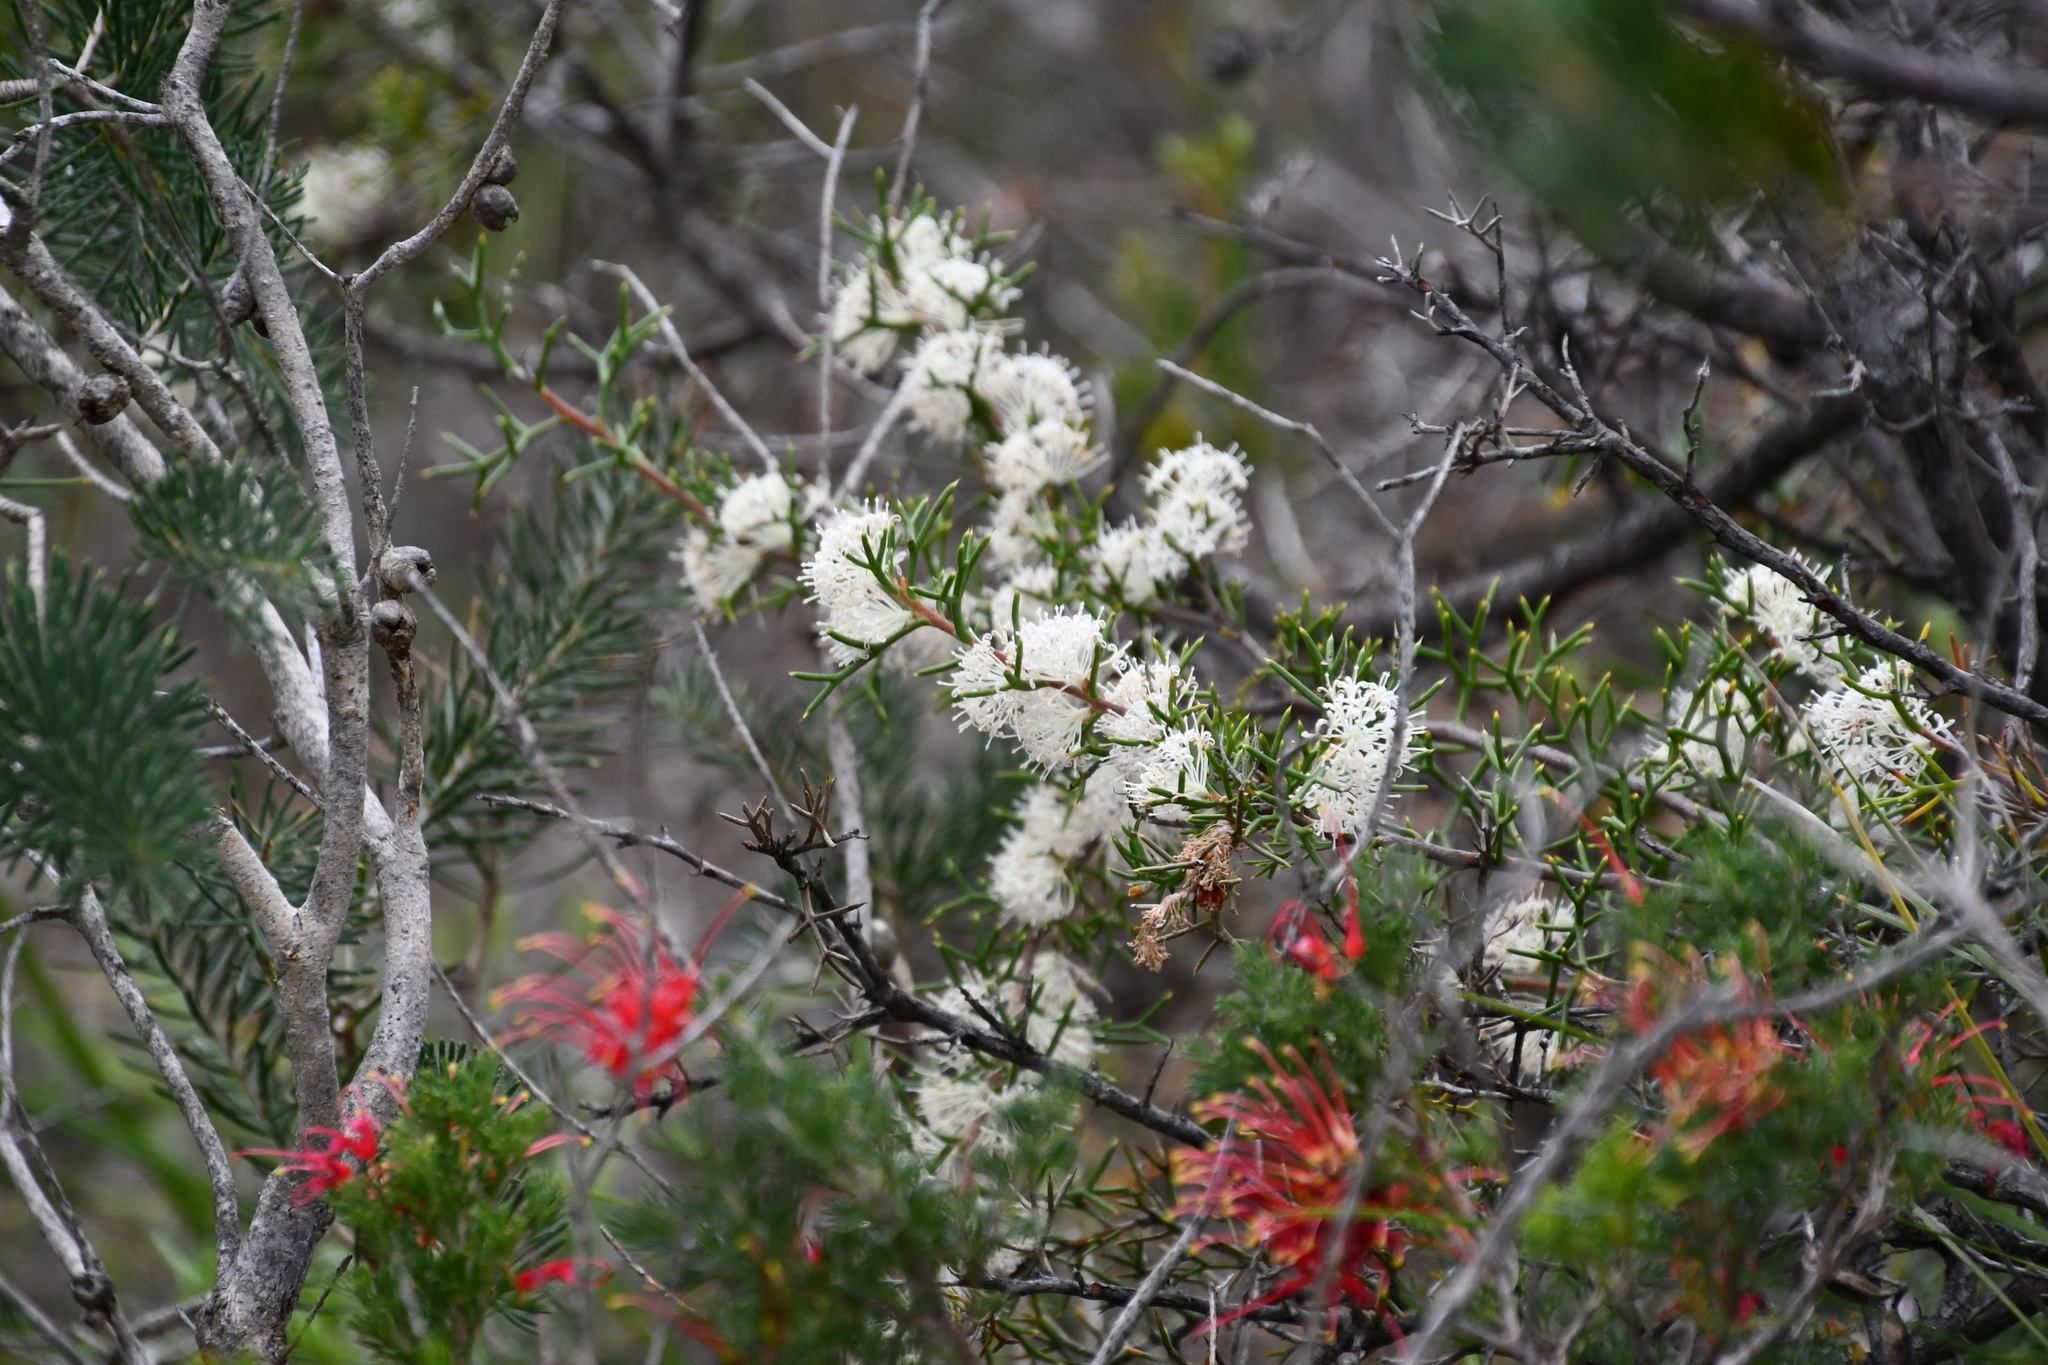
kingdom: Plantae
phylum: Tracheophyta
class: Magnoliopsida
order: Proteales
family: Proteaceae
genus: Hakea
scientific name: Hakea lissocarpha
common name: Honey bush
